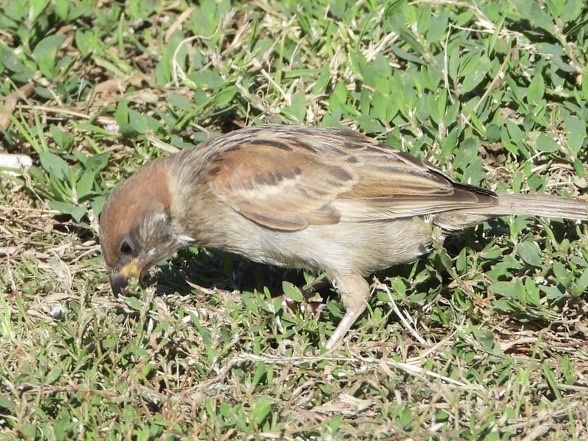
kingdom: Animalia
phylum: Chordata
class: Aves
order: Passeriformes
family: Passeridae
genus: Passer
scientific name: Passer montanus
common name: Eurasian tree sparrow
